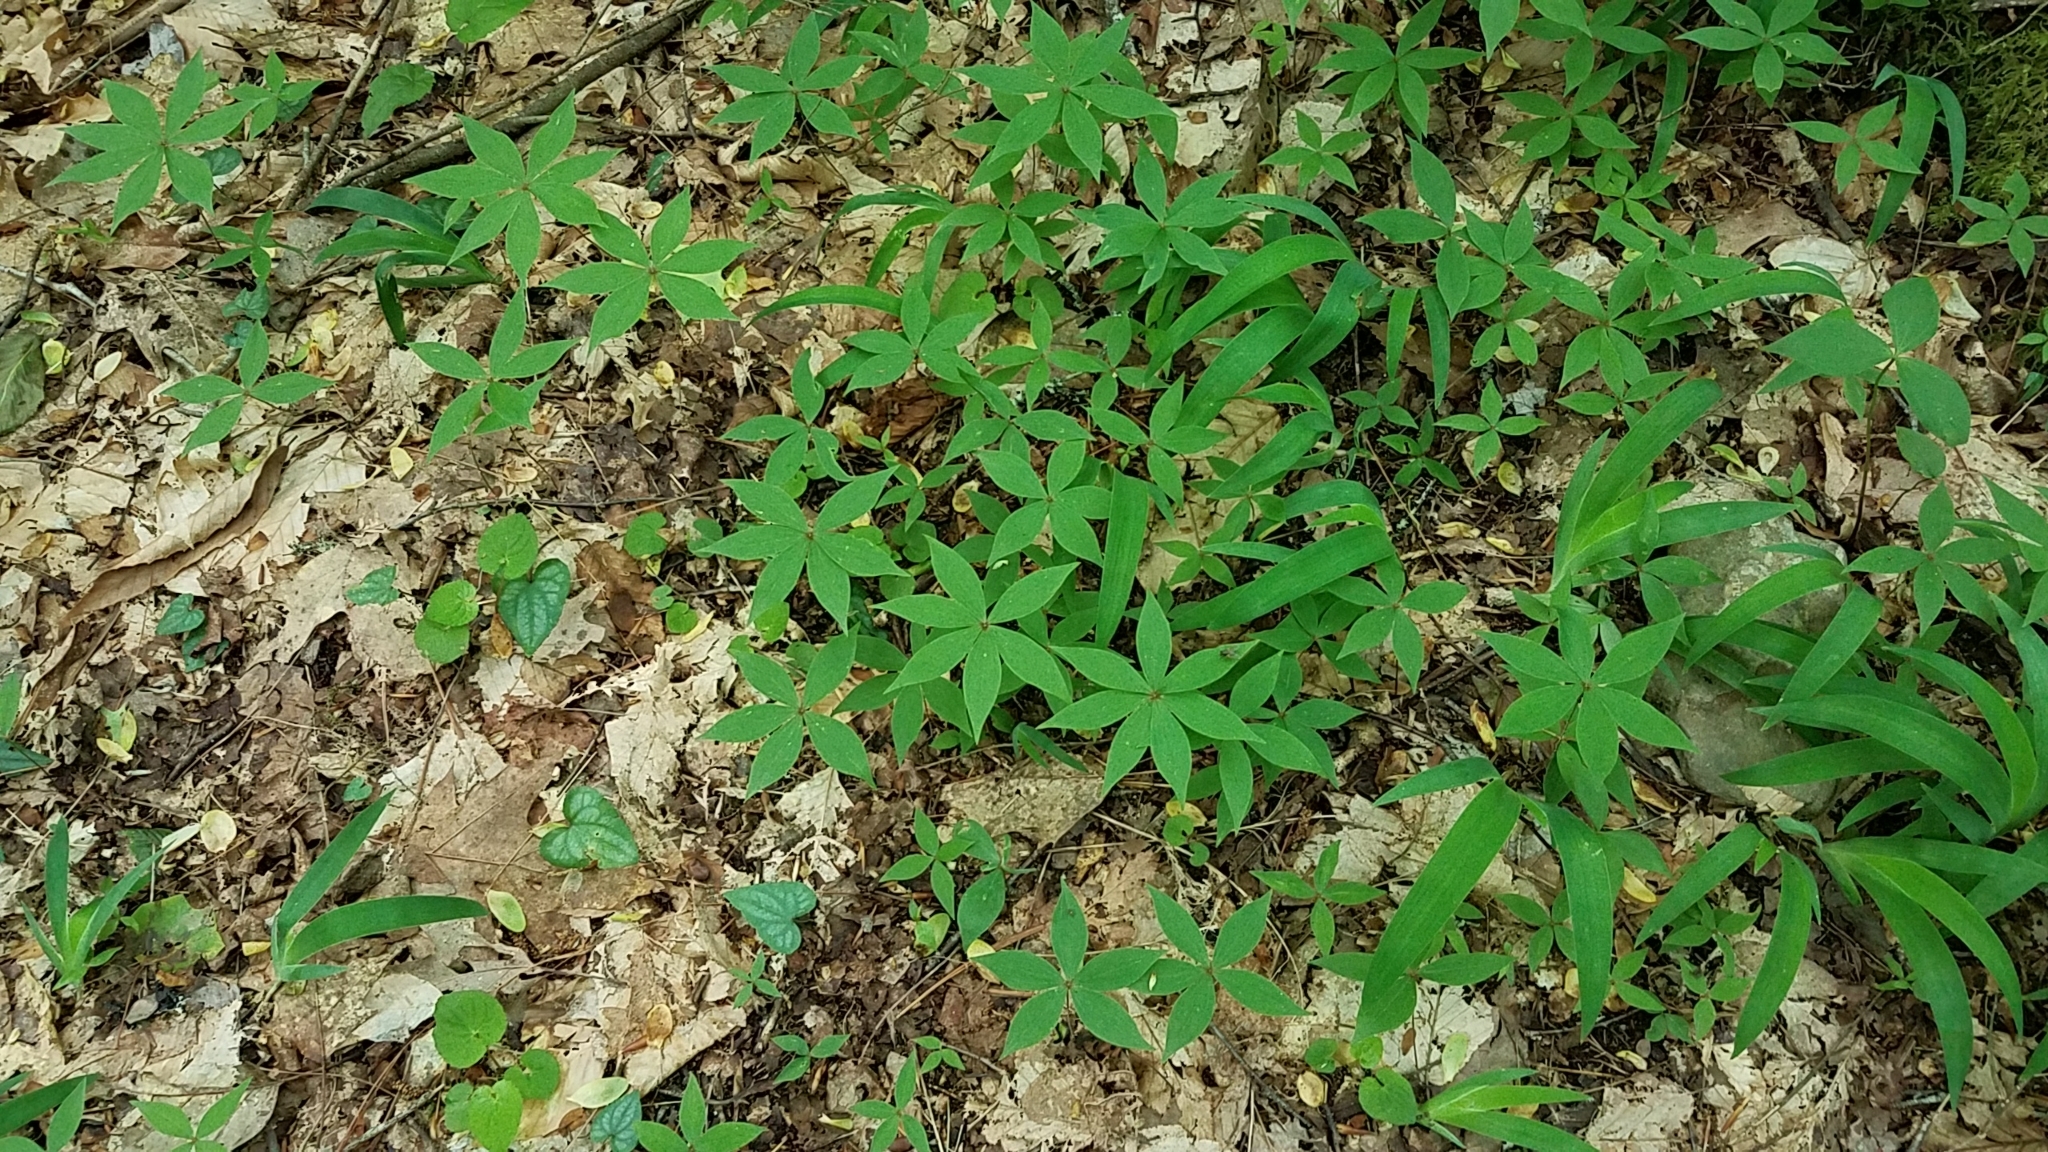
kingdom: Plantae
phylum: Tracheophyta
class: Liliopsida
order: Liliales
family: Liliaceae
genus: Medeola
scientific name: Medeola virginiana
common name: Indian cucumber-root
